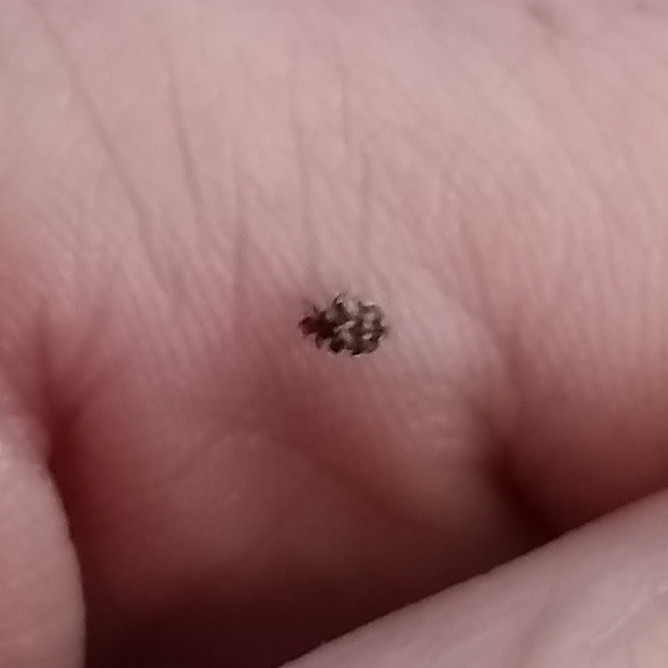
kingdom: Animalia
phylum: Arthropoda
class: Insecta
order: Coleoptera
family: Dermestidae
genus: Anthrenus
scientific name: Anthrenus verbasci
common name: Varied carpet beetle
